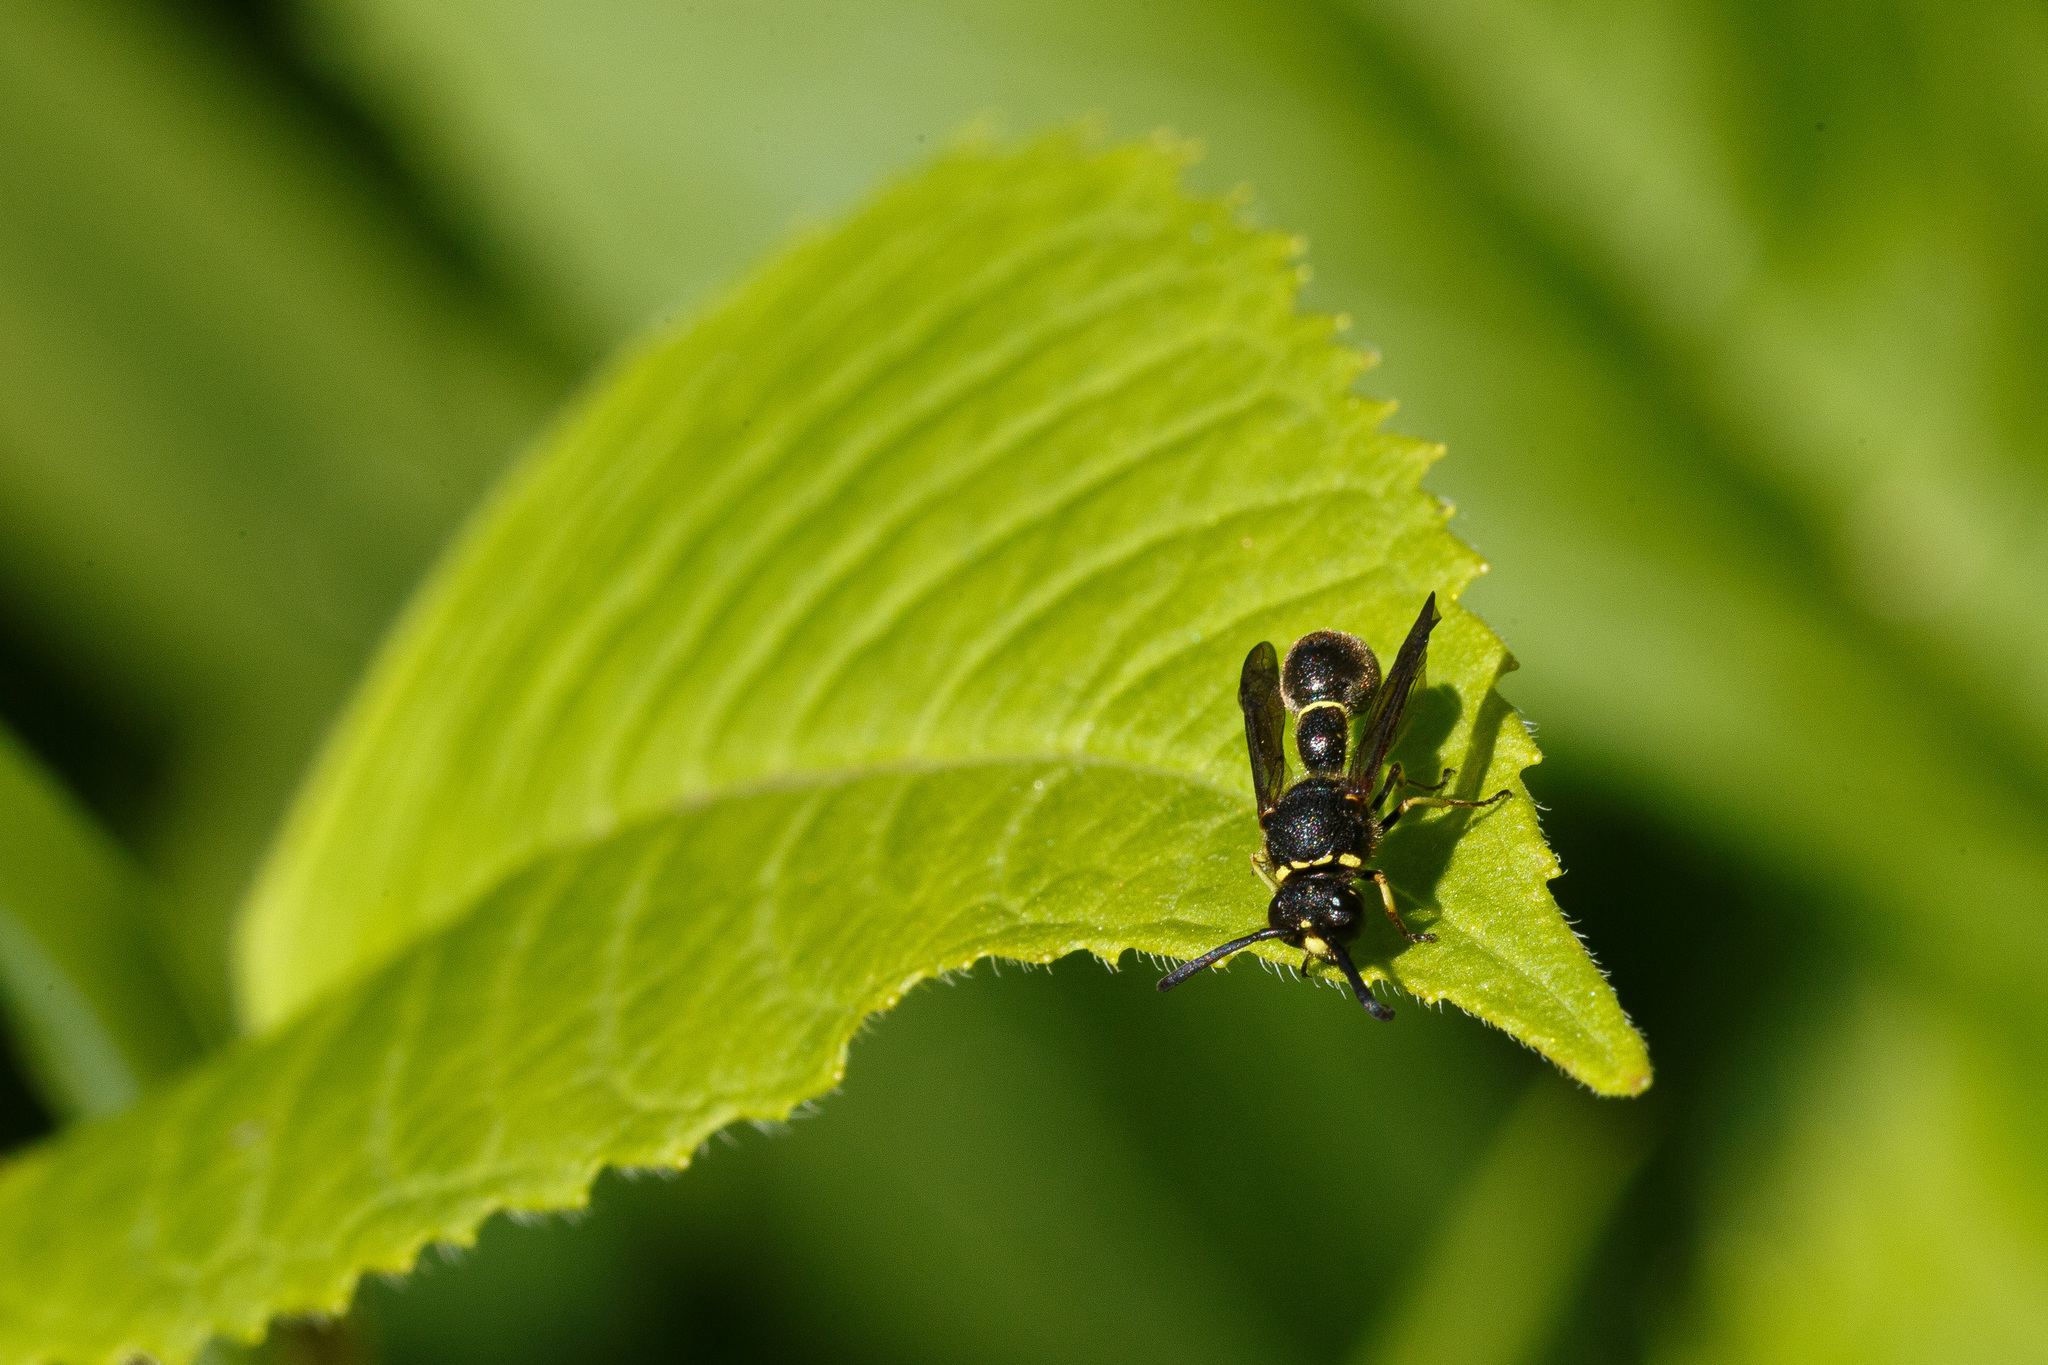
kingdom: Animalia
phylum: Arthropoda
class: Insecta
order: Hymenoptera
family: Vespidae
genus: Eumenes
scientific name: Eumenes consobrinus
